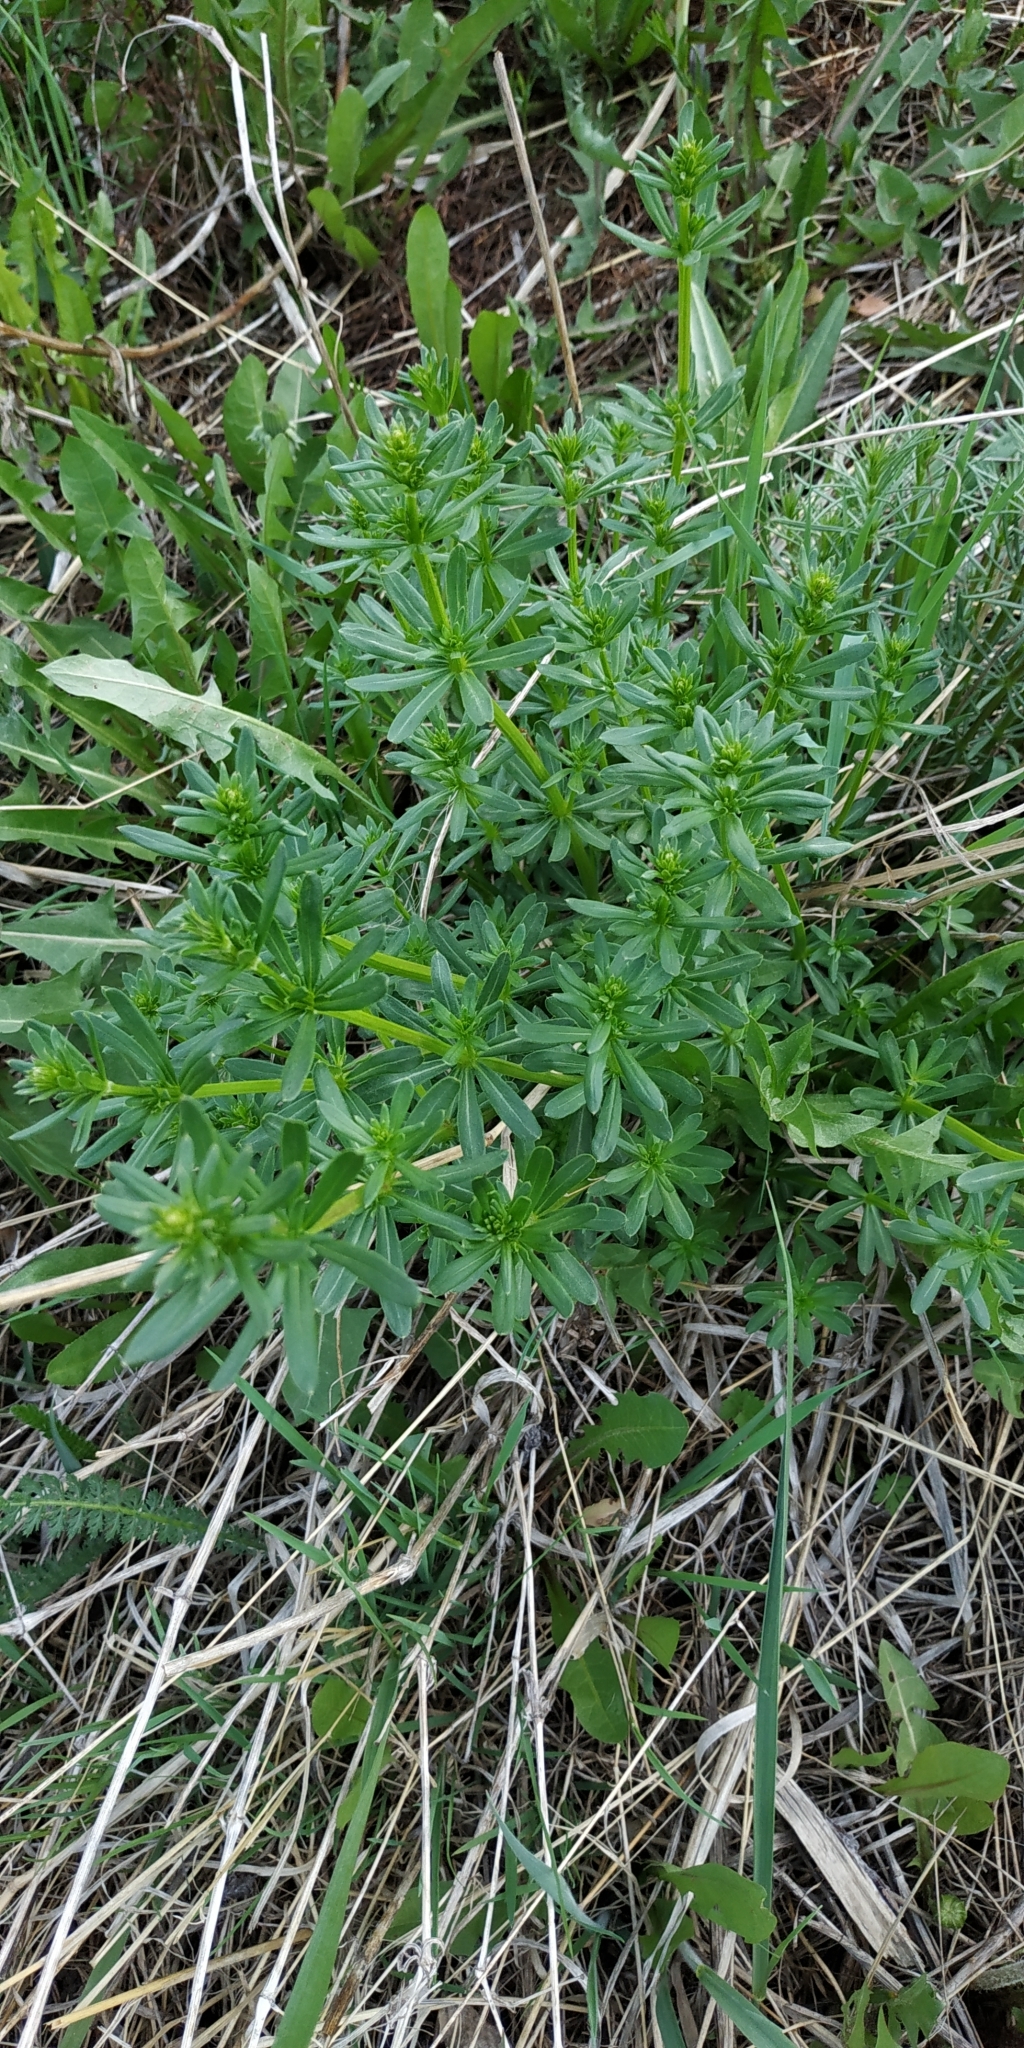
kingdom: Plantae
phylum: Tracheophyta
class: Magnoliopsida
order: Gentianales
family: Rubiaceae
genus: Galium
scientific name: Galium mollugo
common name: Hedge bedstraw
